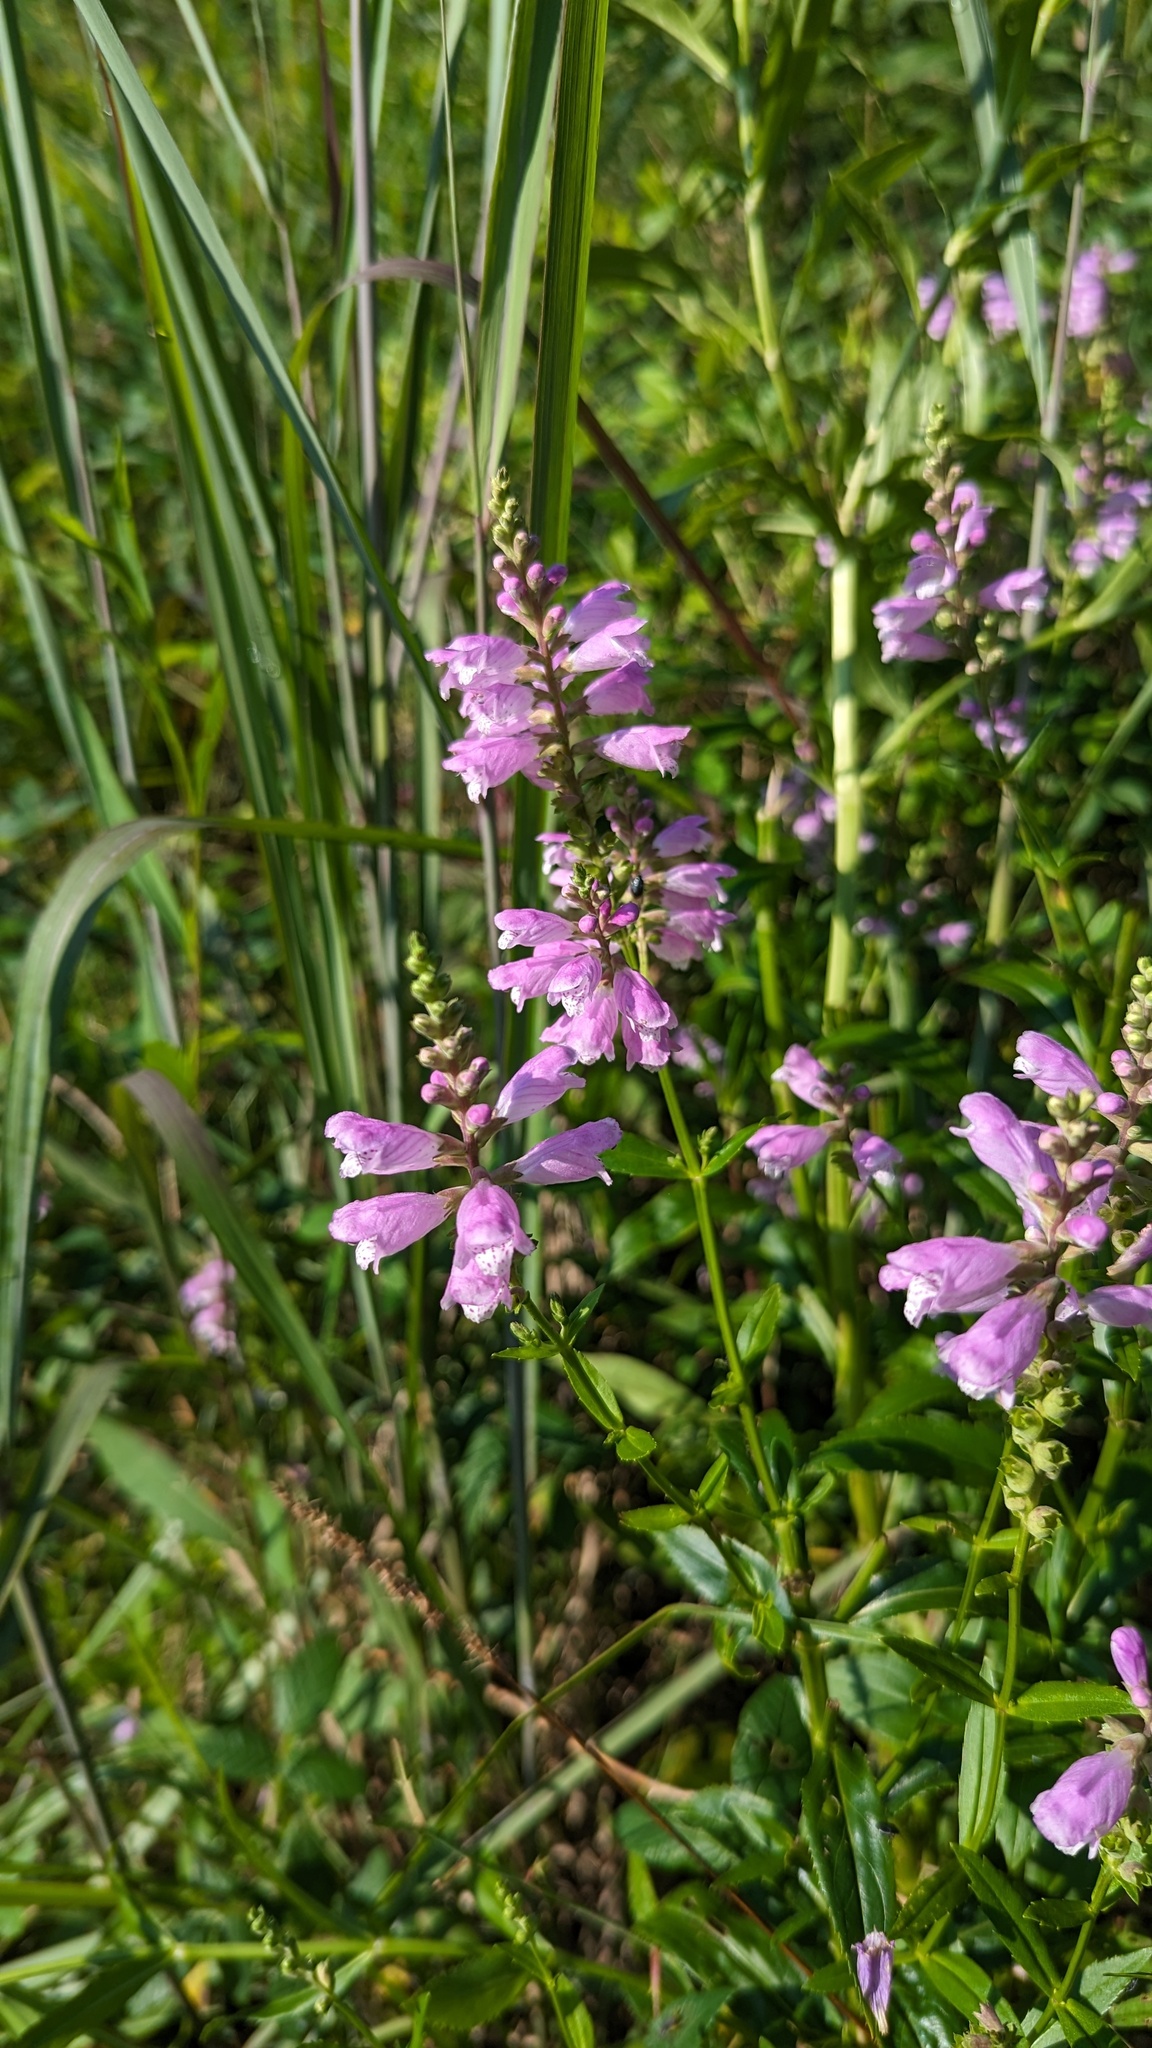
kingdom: Plantae
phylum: Tracheophyta
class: Magnoliopsida
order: Lamiales
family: Lamiaceae
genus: Physostegia
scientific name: Physostegia virginiana
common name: Obedient-plant
